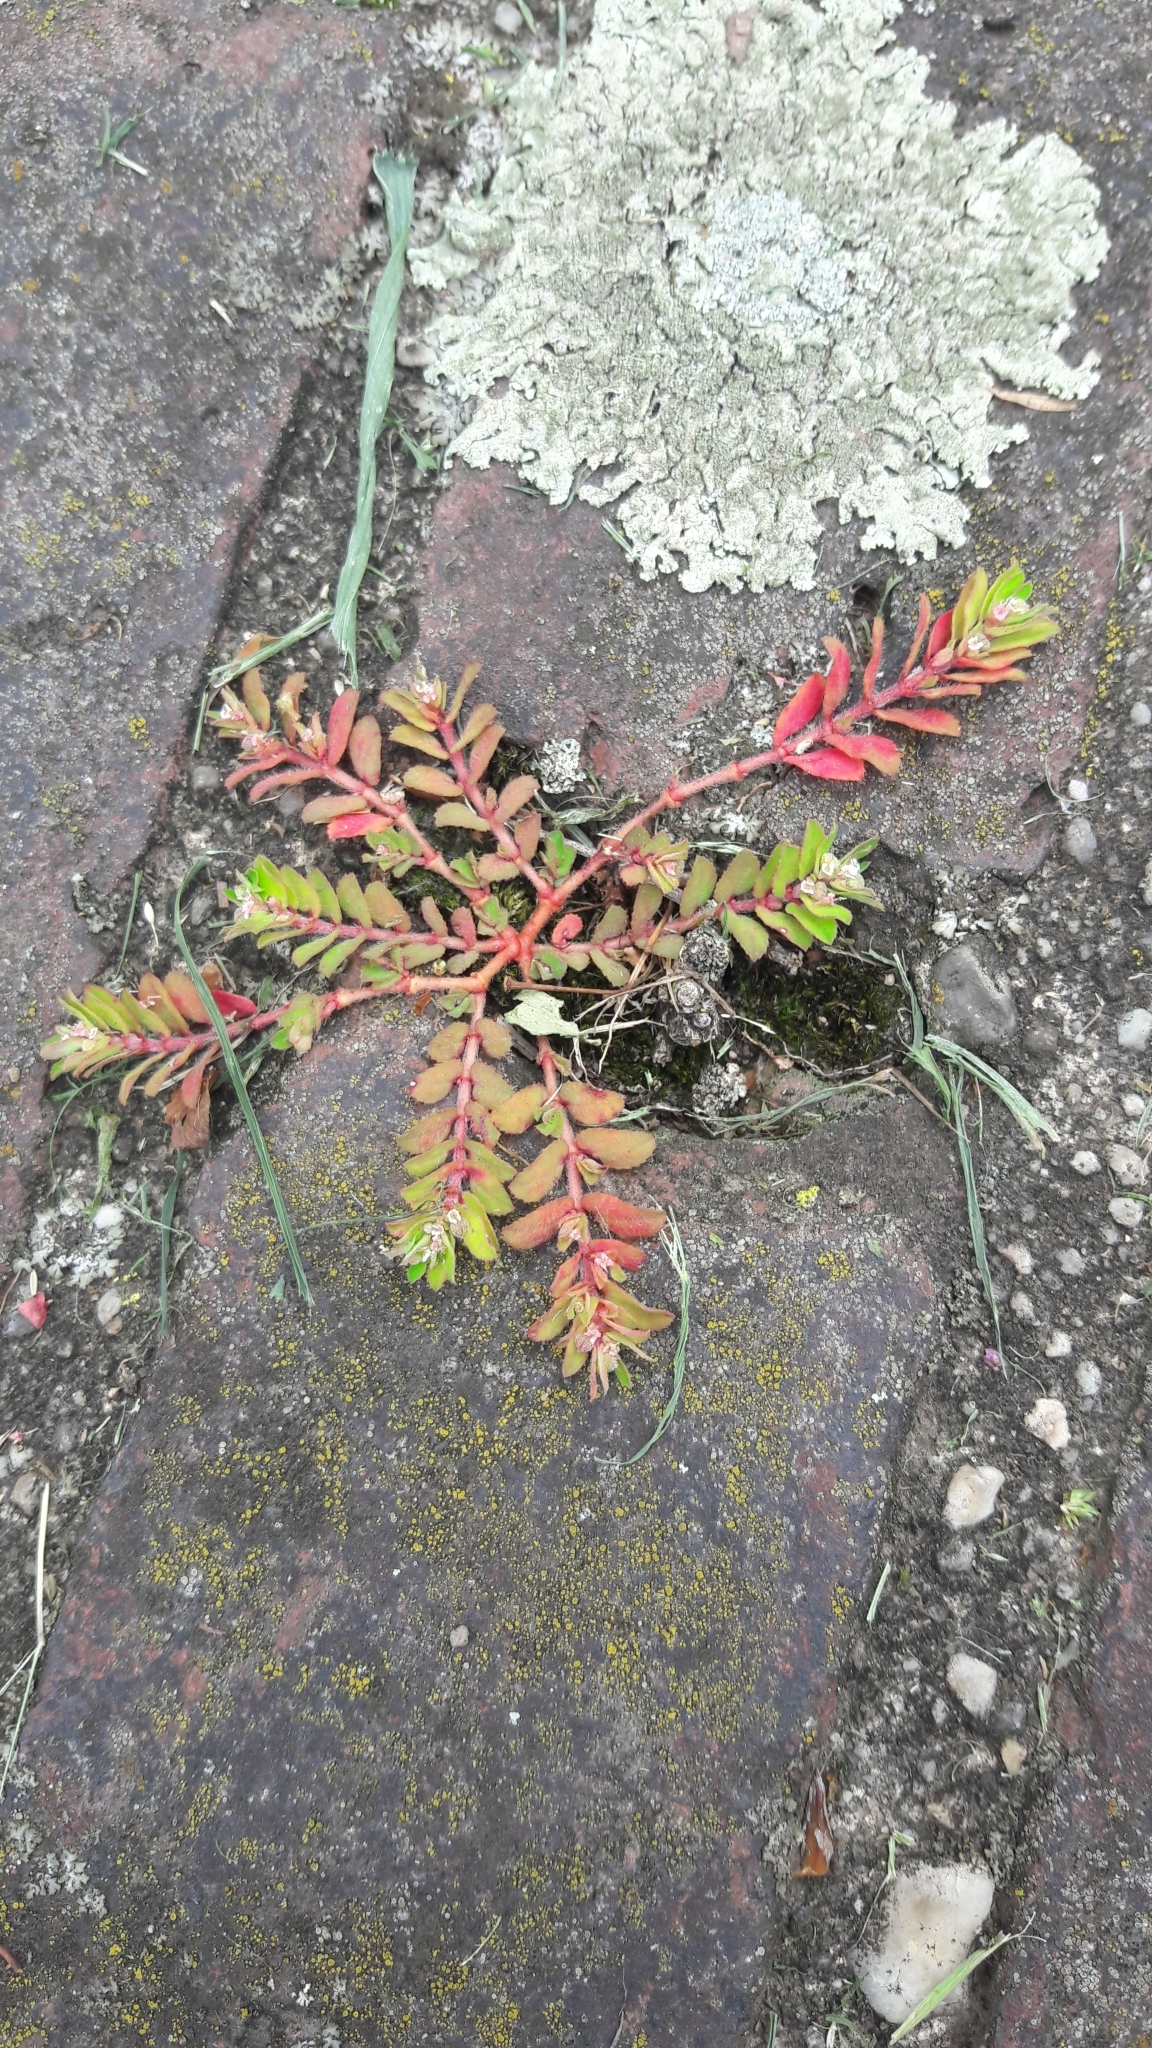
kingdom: Plantae
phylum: Tracheophyta
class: Magnoliopsida
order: Malpighiales
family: Euphorbiaceae
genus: Euphorbia
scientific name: Euphorbia maculata
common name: Spotted spurge
